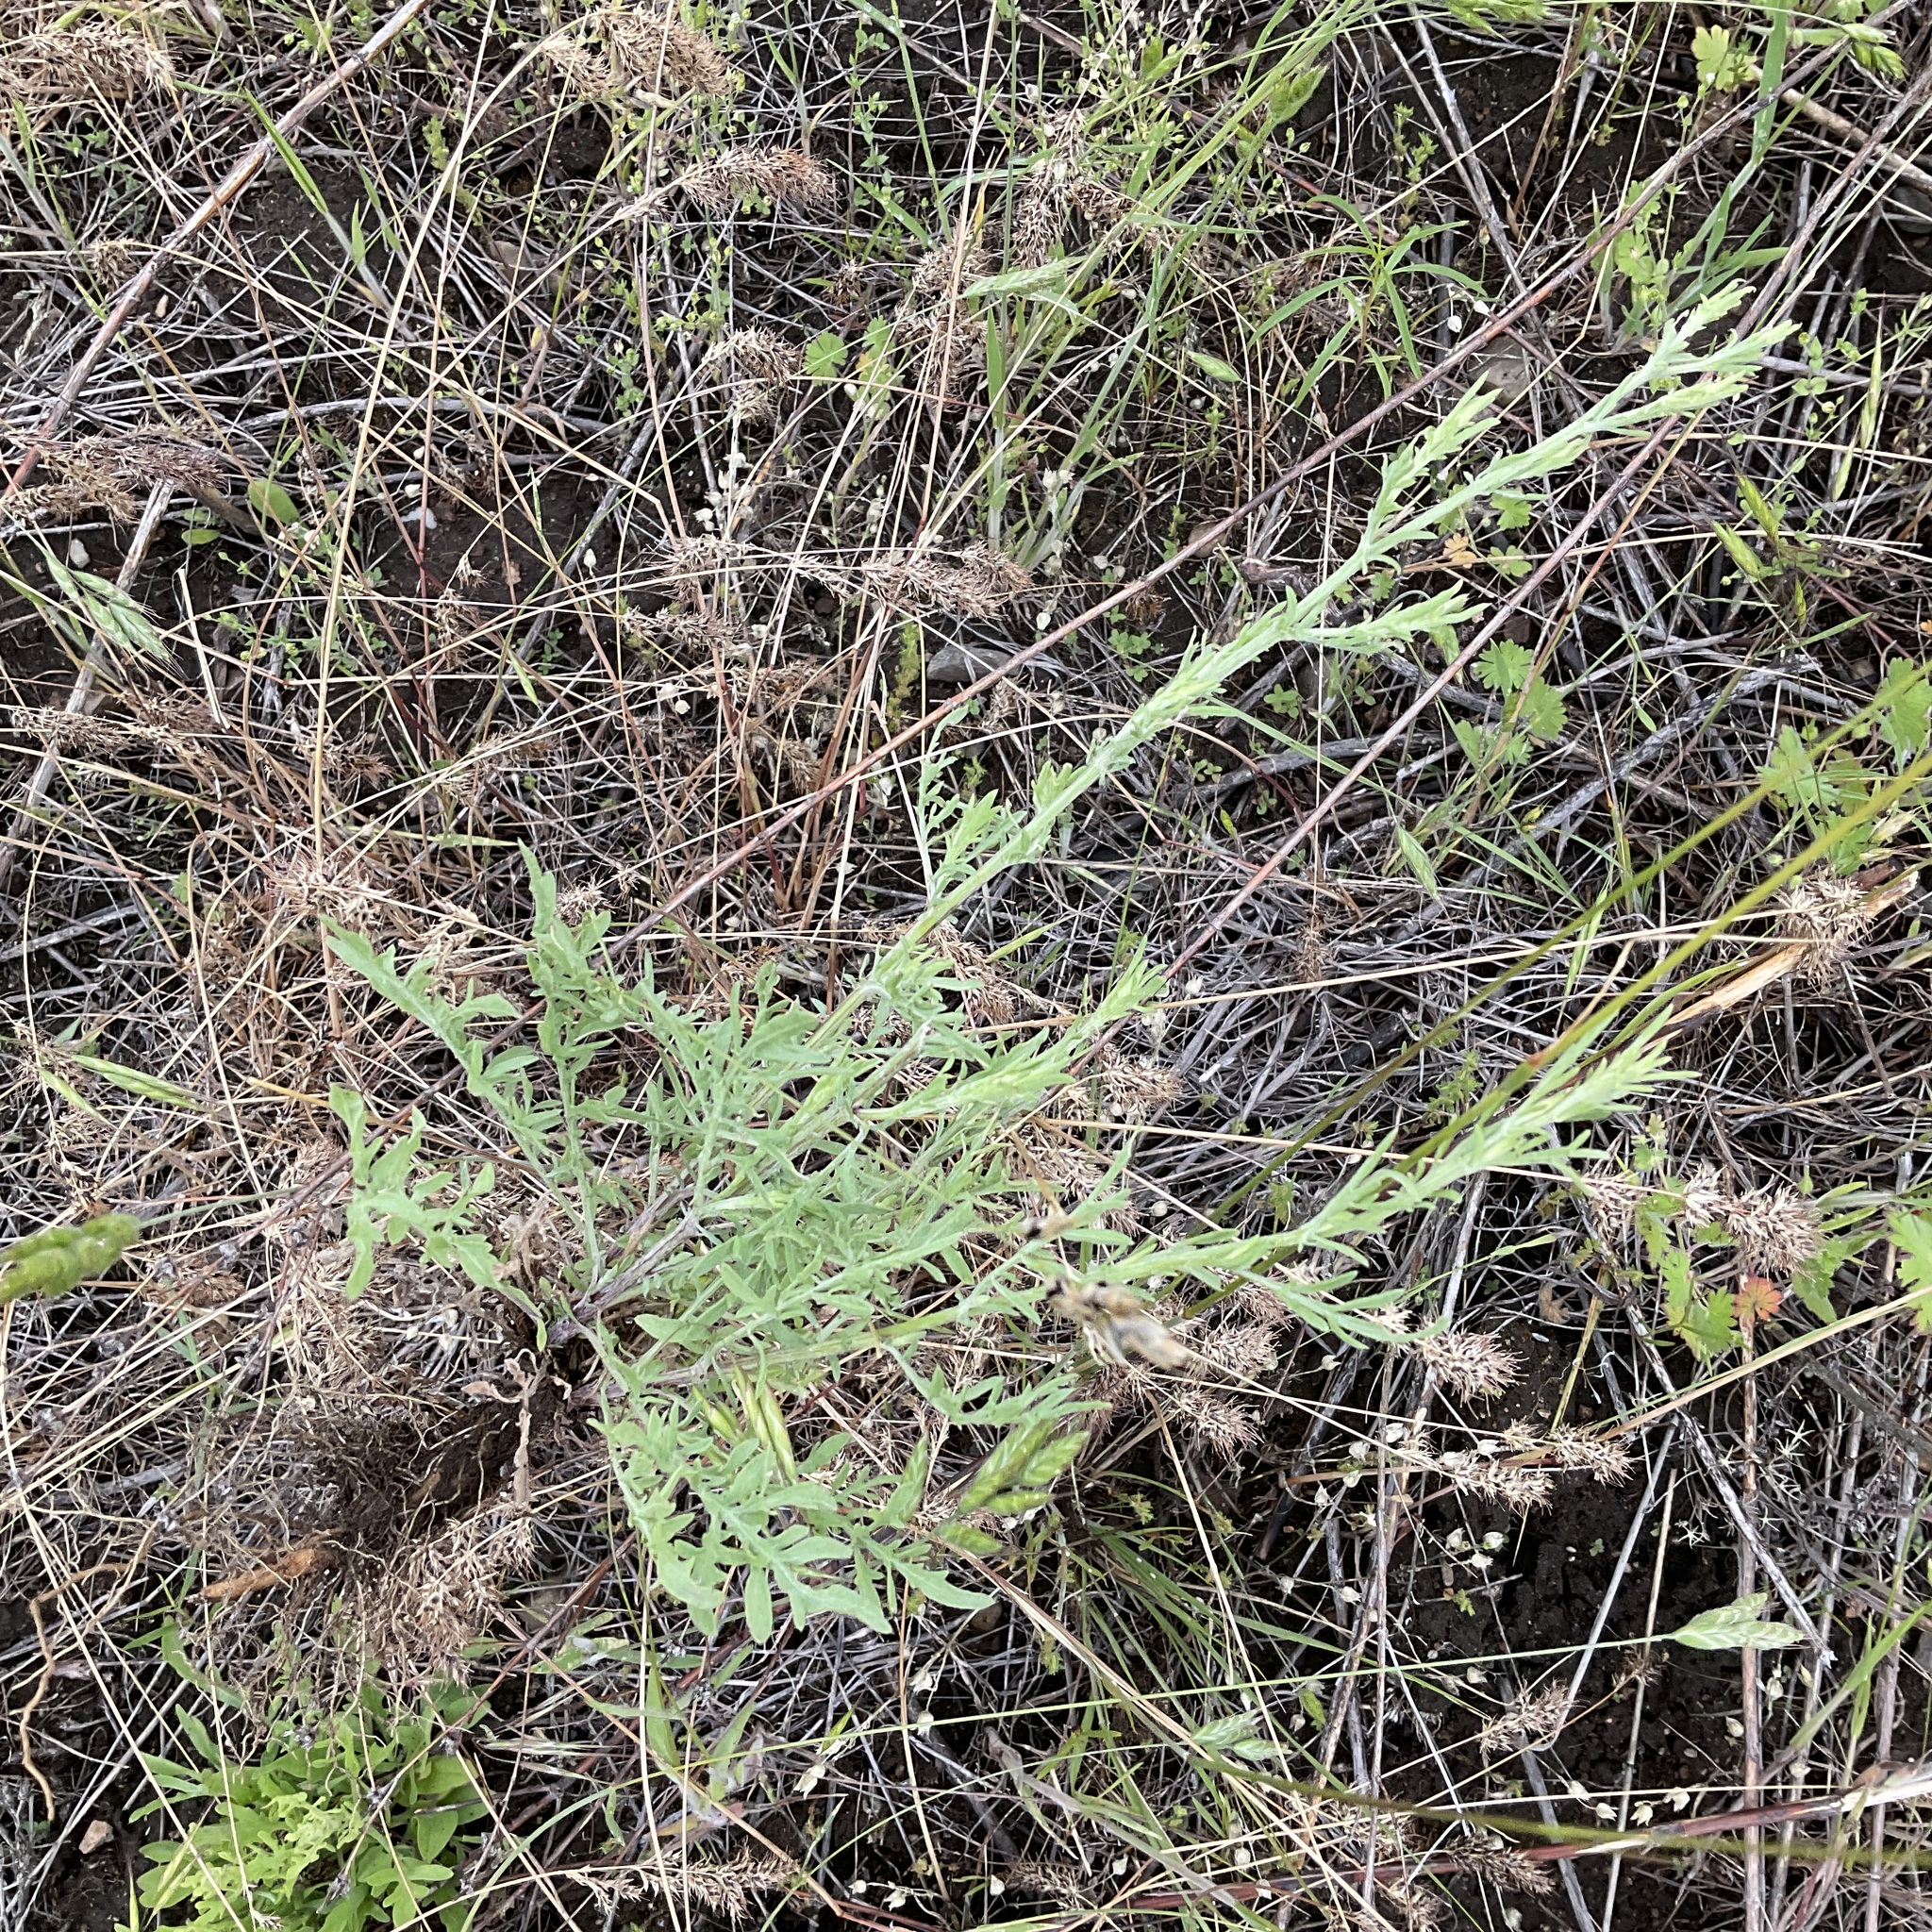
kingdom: Plantae
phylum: Tracheophyta
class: Magnoliopsida
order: Asterales
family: Asteraceae
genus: Centaurea
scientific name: Centaurea diffusa
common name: Diffuse knapweed
